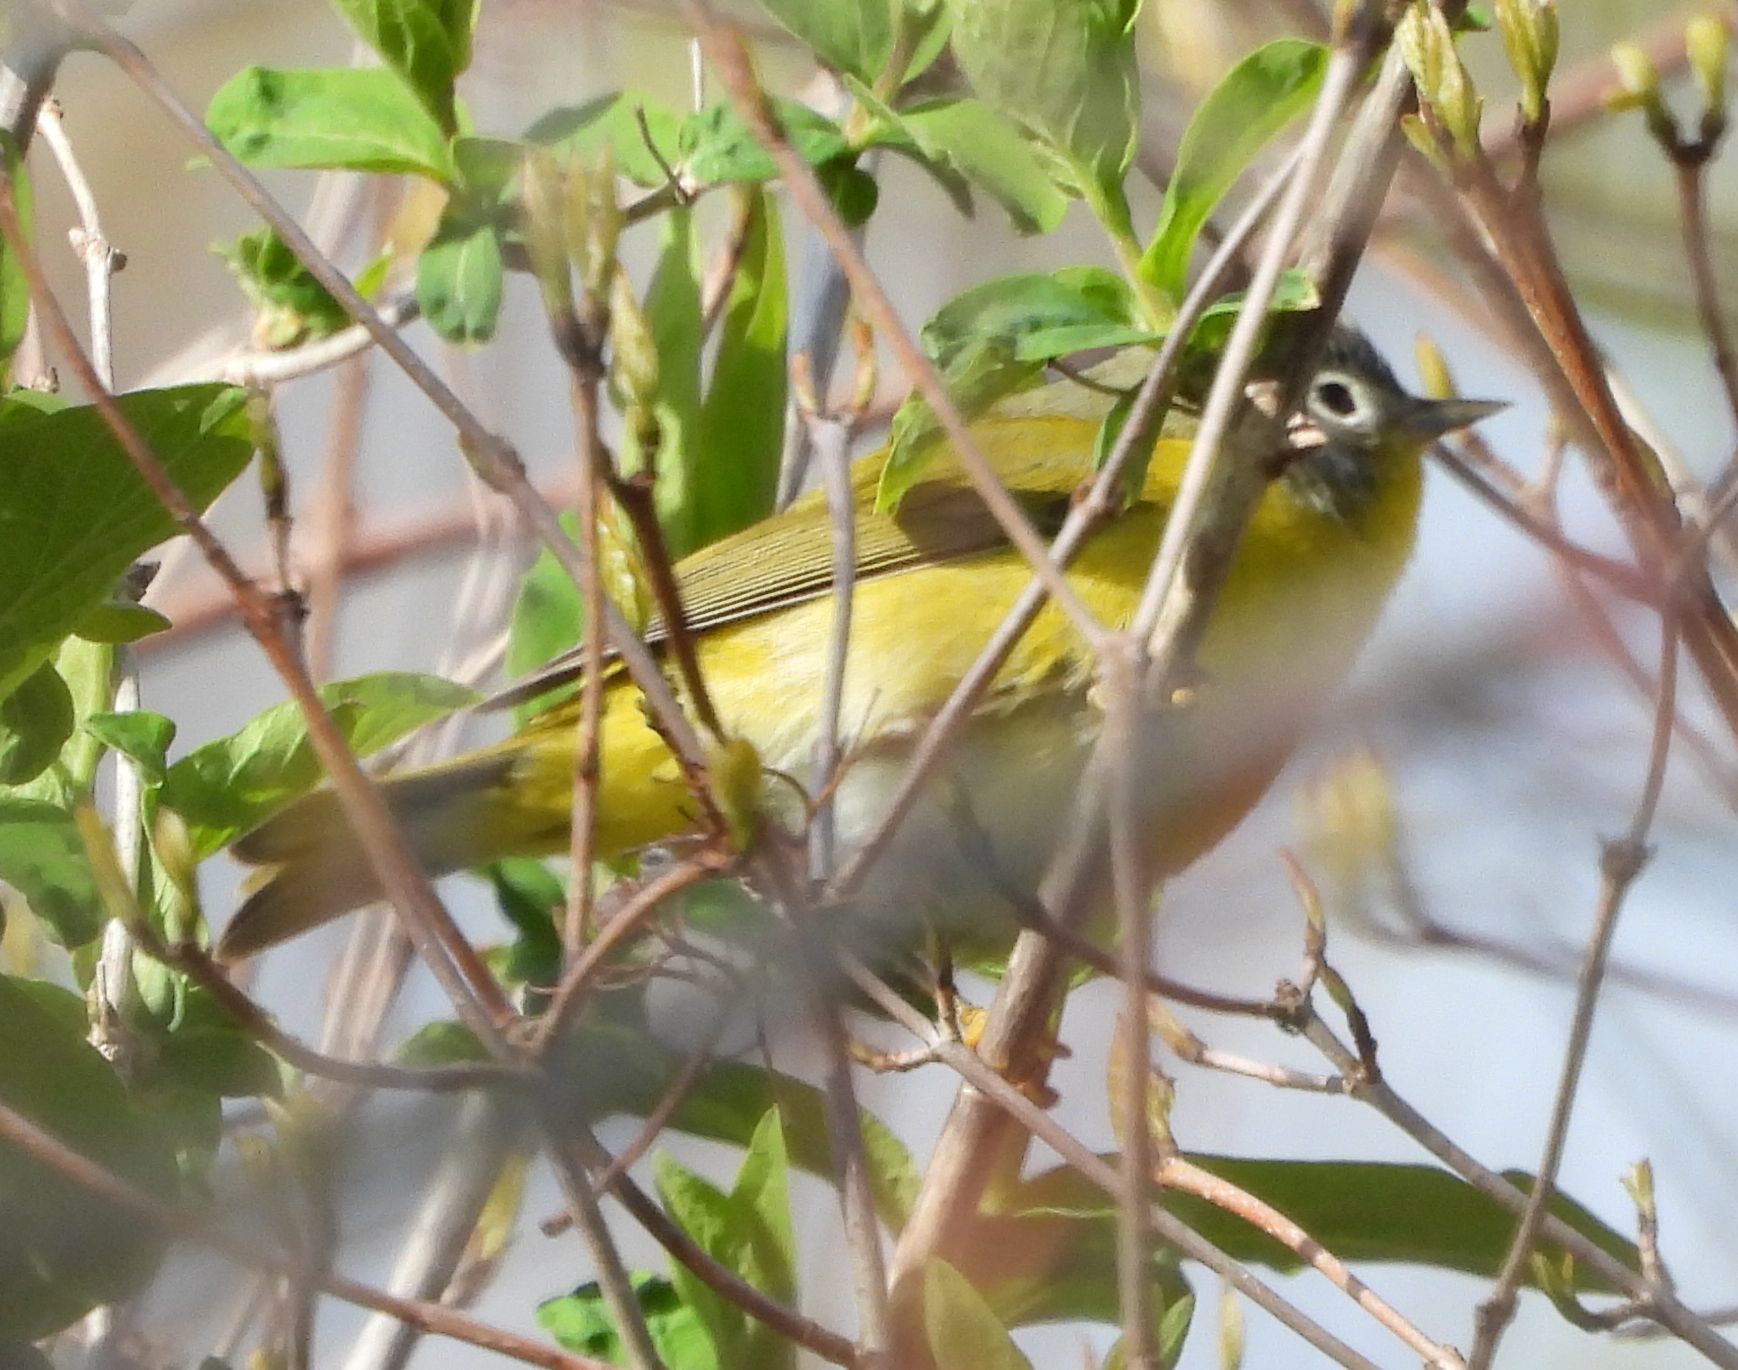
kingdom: Animalia
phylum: Chordata
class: Aves
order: Passeriformes
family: Parulidae
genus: Leiothlypis
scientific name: Leiothlypis ruficapilla
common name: Nashville warbler
